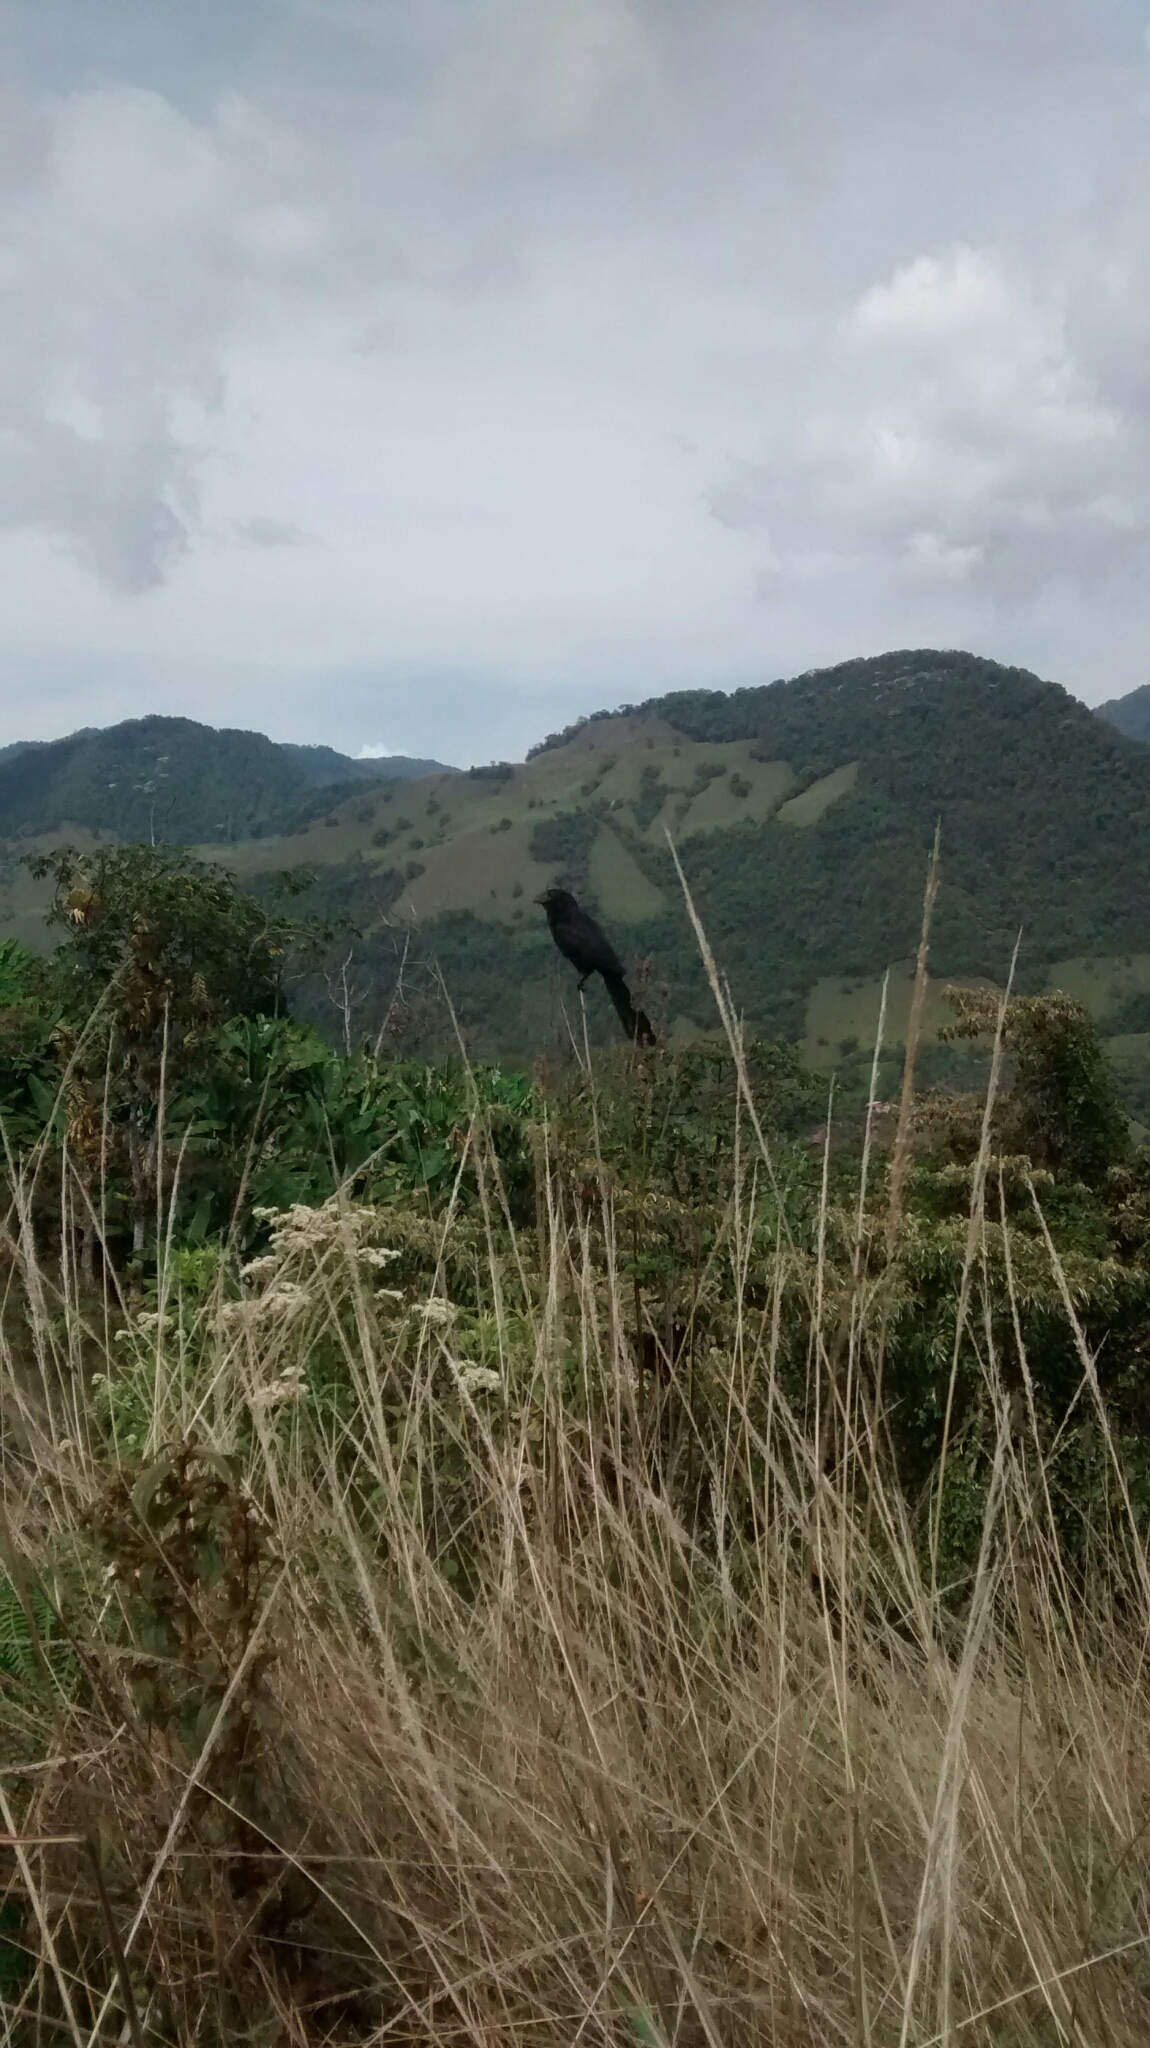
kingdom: Animalia
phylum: Chordata
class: Aves
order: Cuculiformes
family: Cuculidae
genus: Crotophaga
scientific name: Crotophaga ani
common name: Smooth-billed ani
